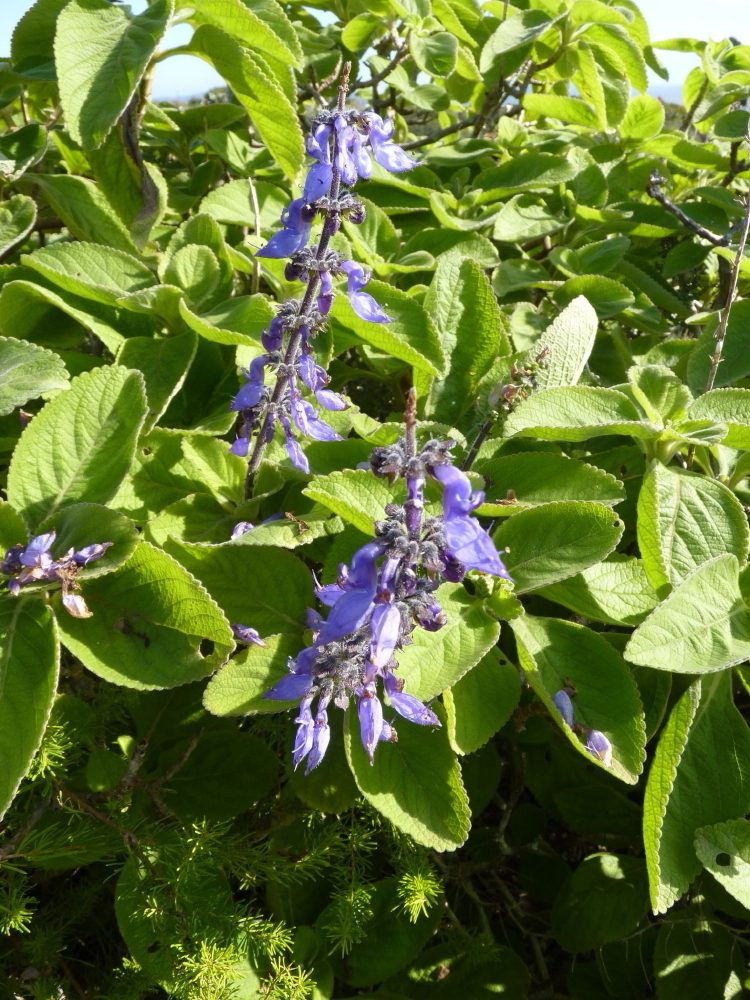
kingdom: Plantae
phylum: Tracheophyta
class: Magnoliopsida
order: Lamiales
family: Lamiaceae
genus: Coleus
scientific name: Coleus barbatus
